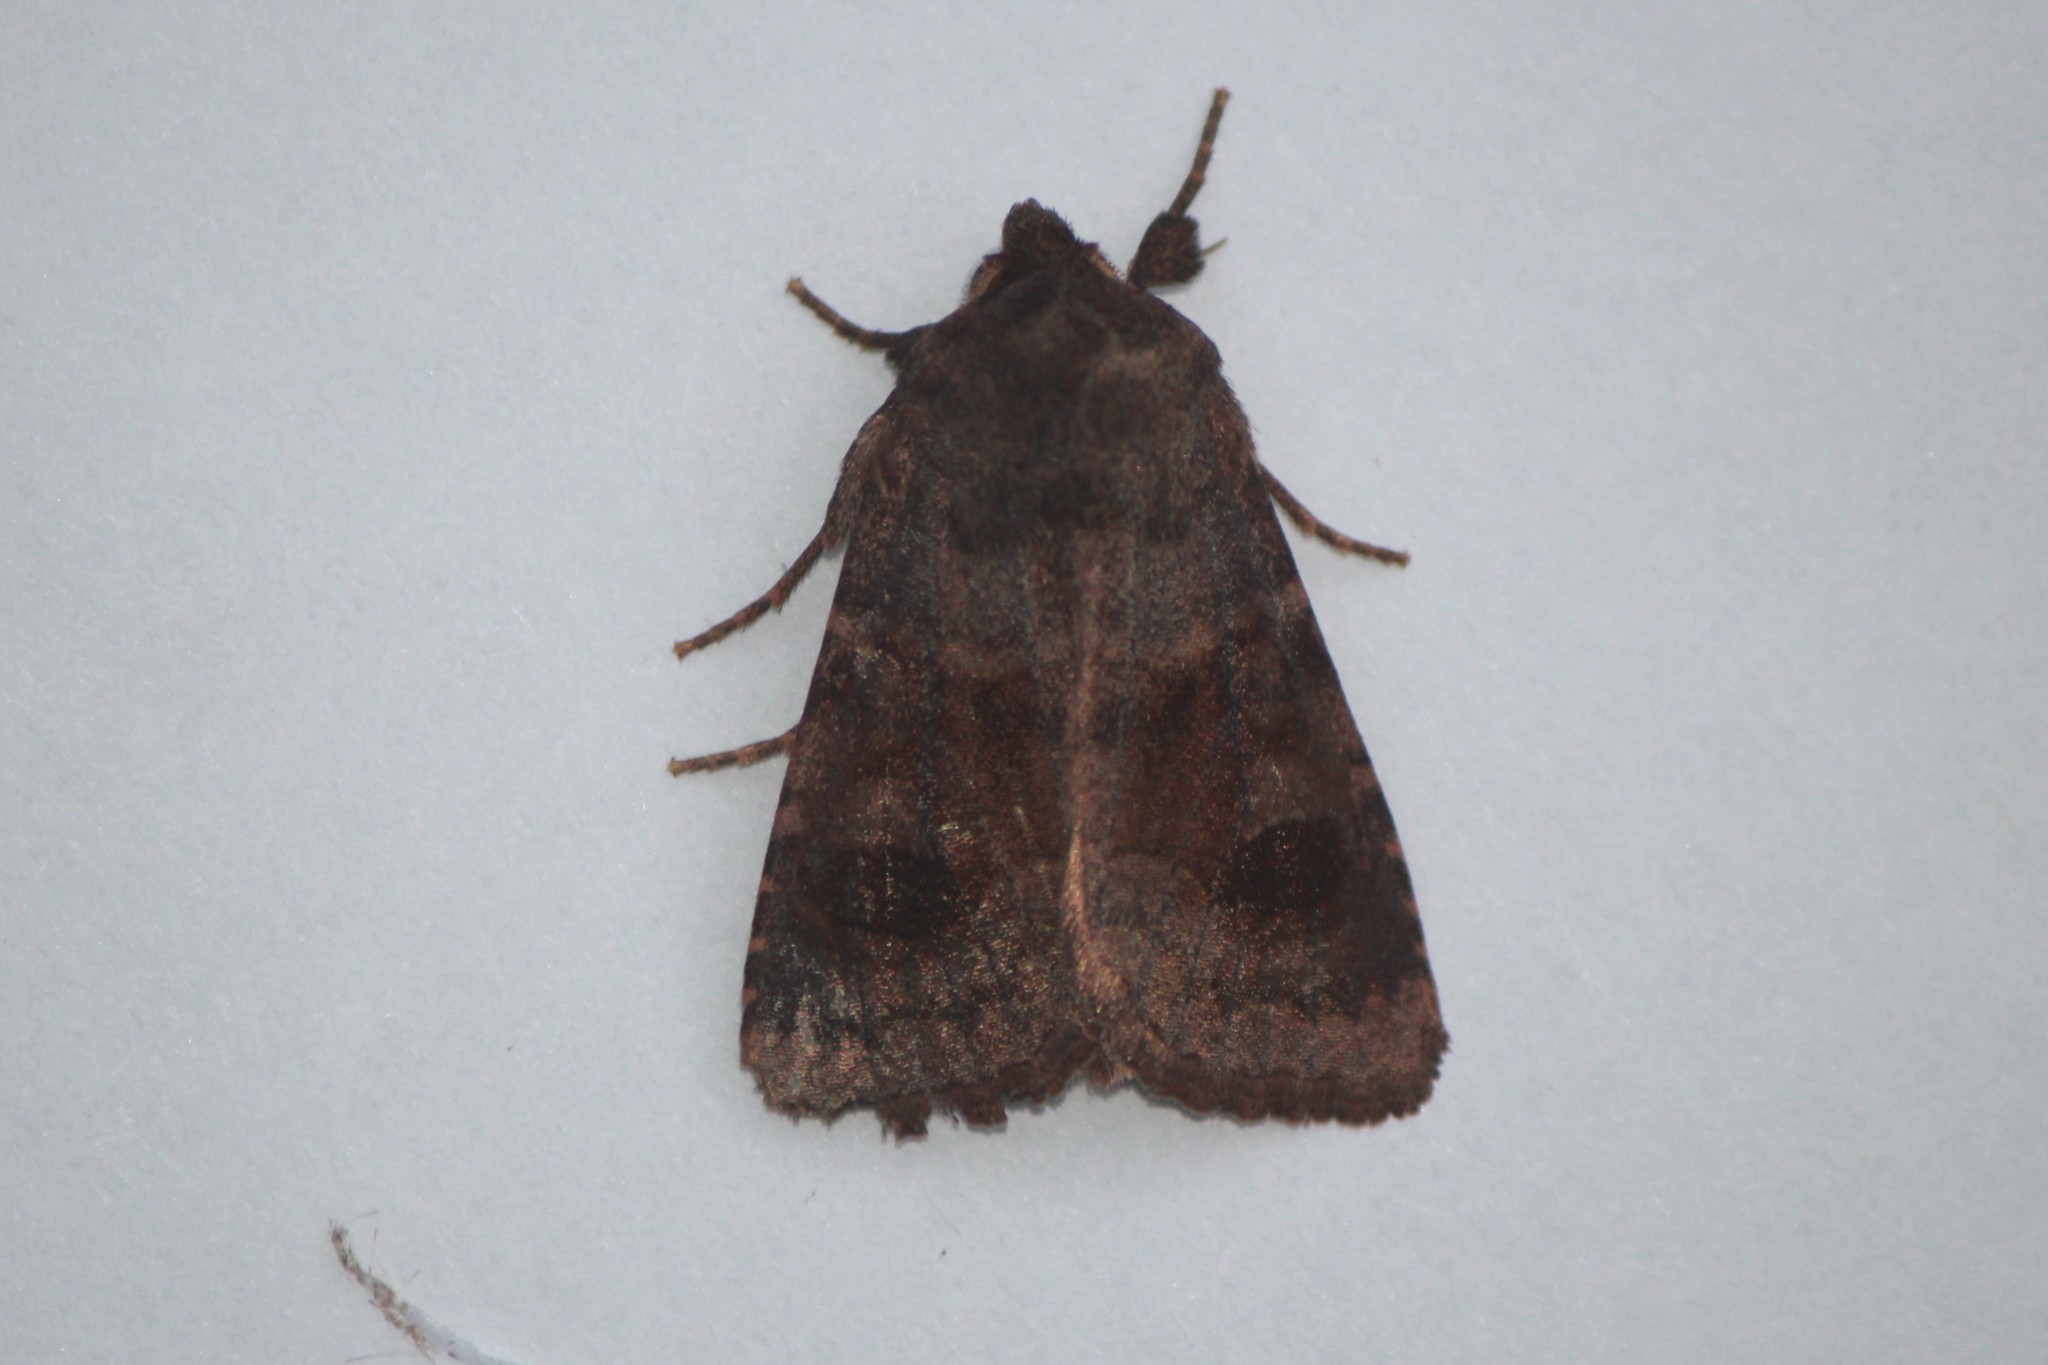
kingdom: Animalia
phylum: Arthropoda
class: Insecta
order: Lepidoptera
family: Noctuidae
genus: Nephelodes
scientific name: Nephelodes minians
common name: Bronzed cutworm
